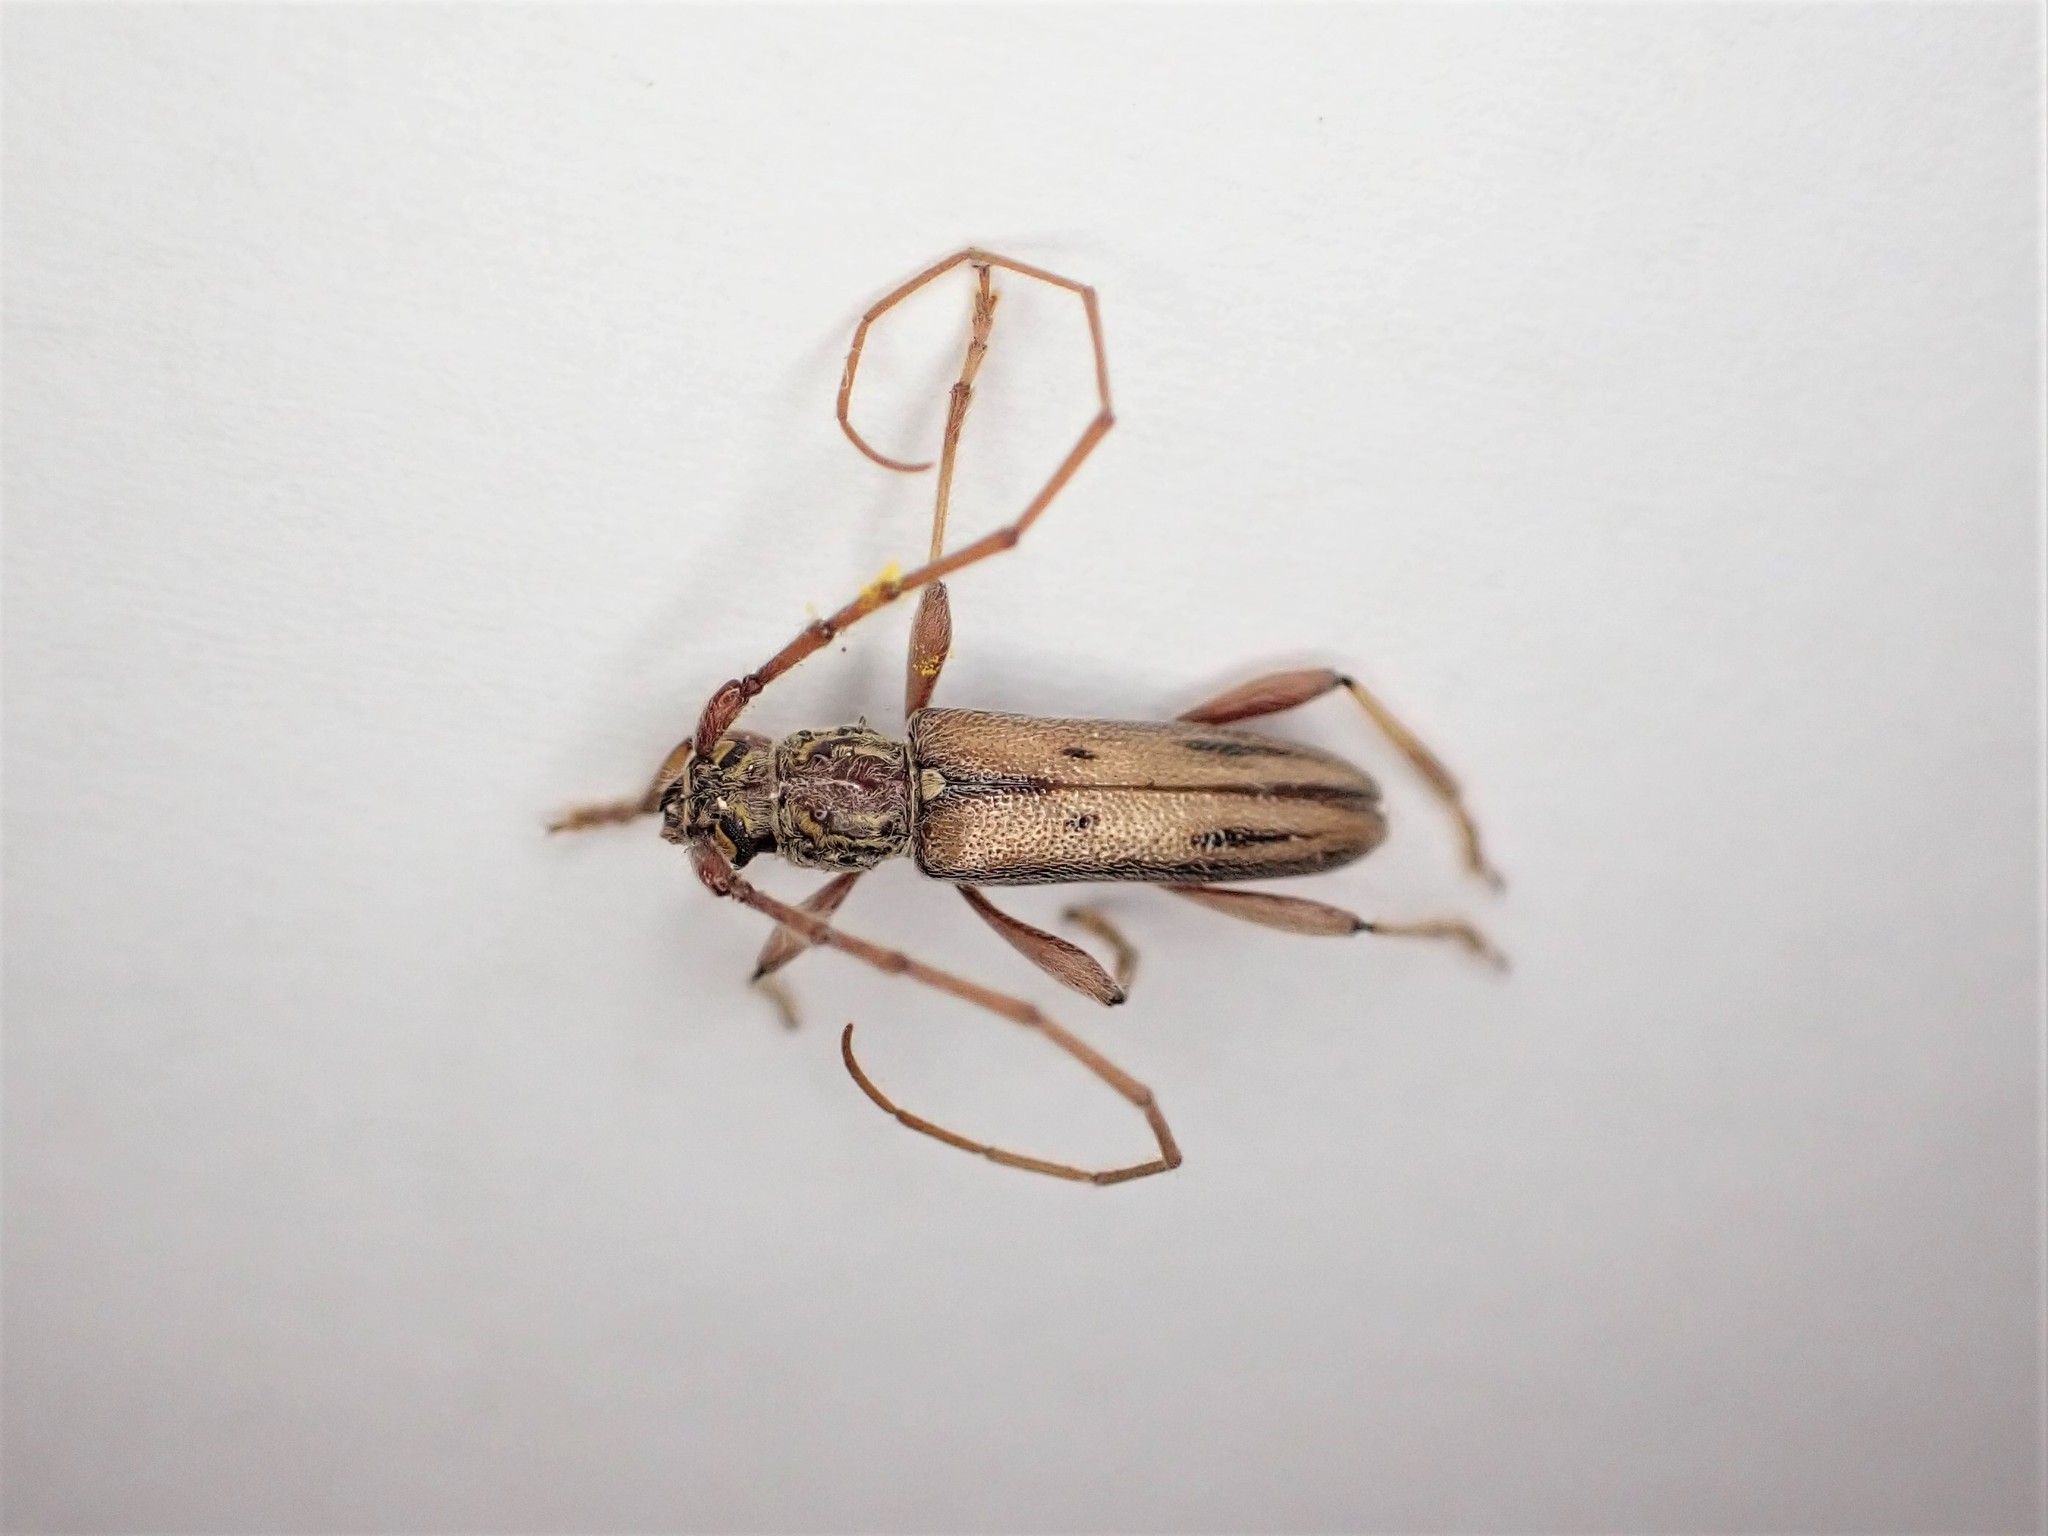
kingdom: Animalia
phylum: Arthropoda
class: Insecta
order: Coleoptera
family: Cerambycidae
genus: Didymocantha
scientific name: Didymocantha sublineata
